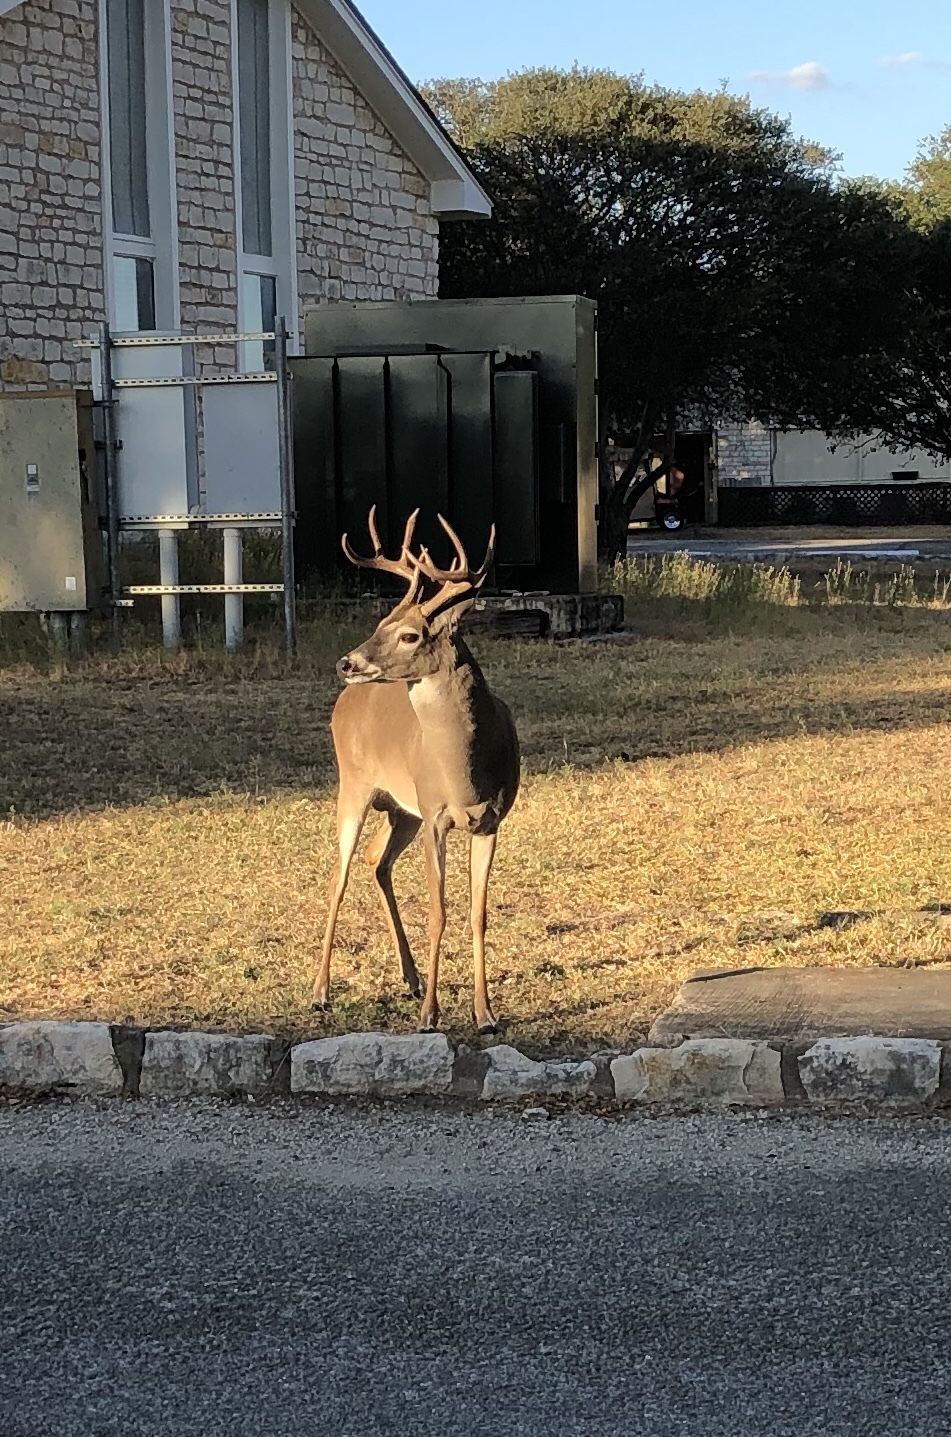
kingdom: Animalia
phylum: Chordata
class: Mammalia
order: Artiodactyla
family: Cervidae
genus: Odocoileus
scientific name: Odocoileus virginianus
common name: White-tailed deer
